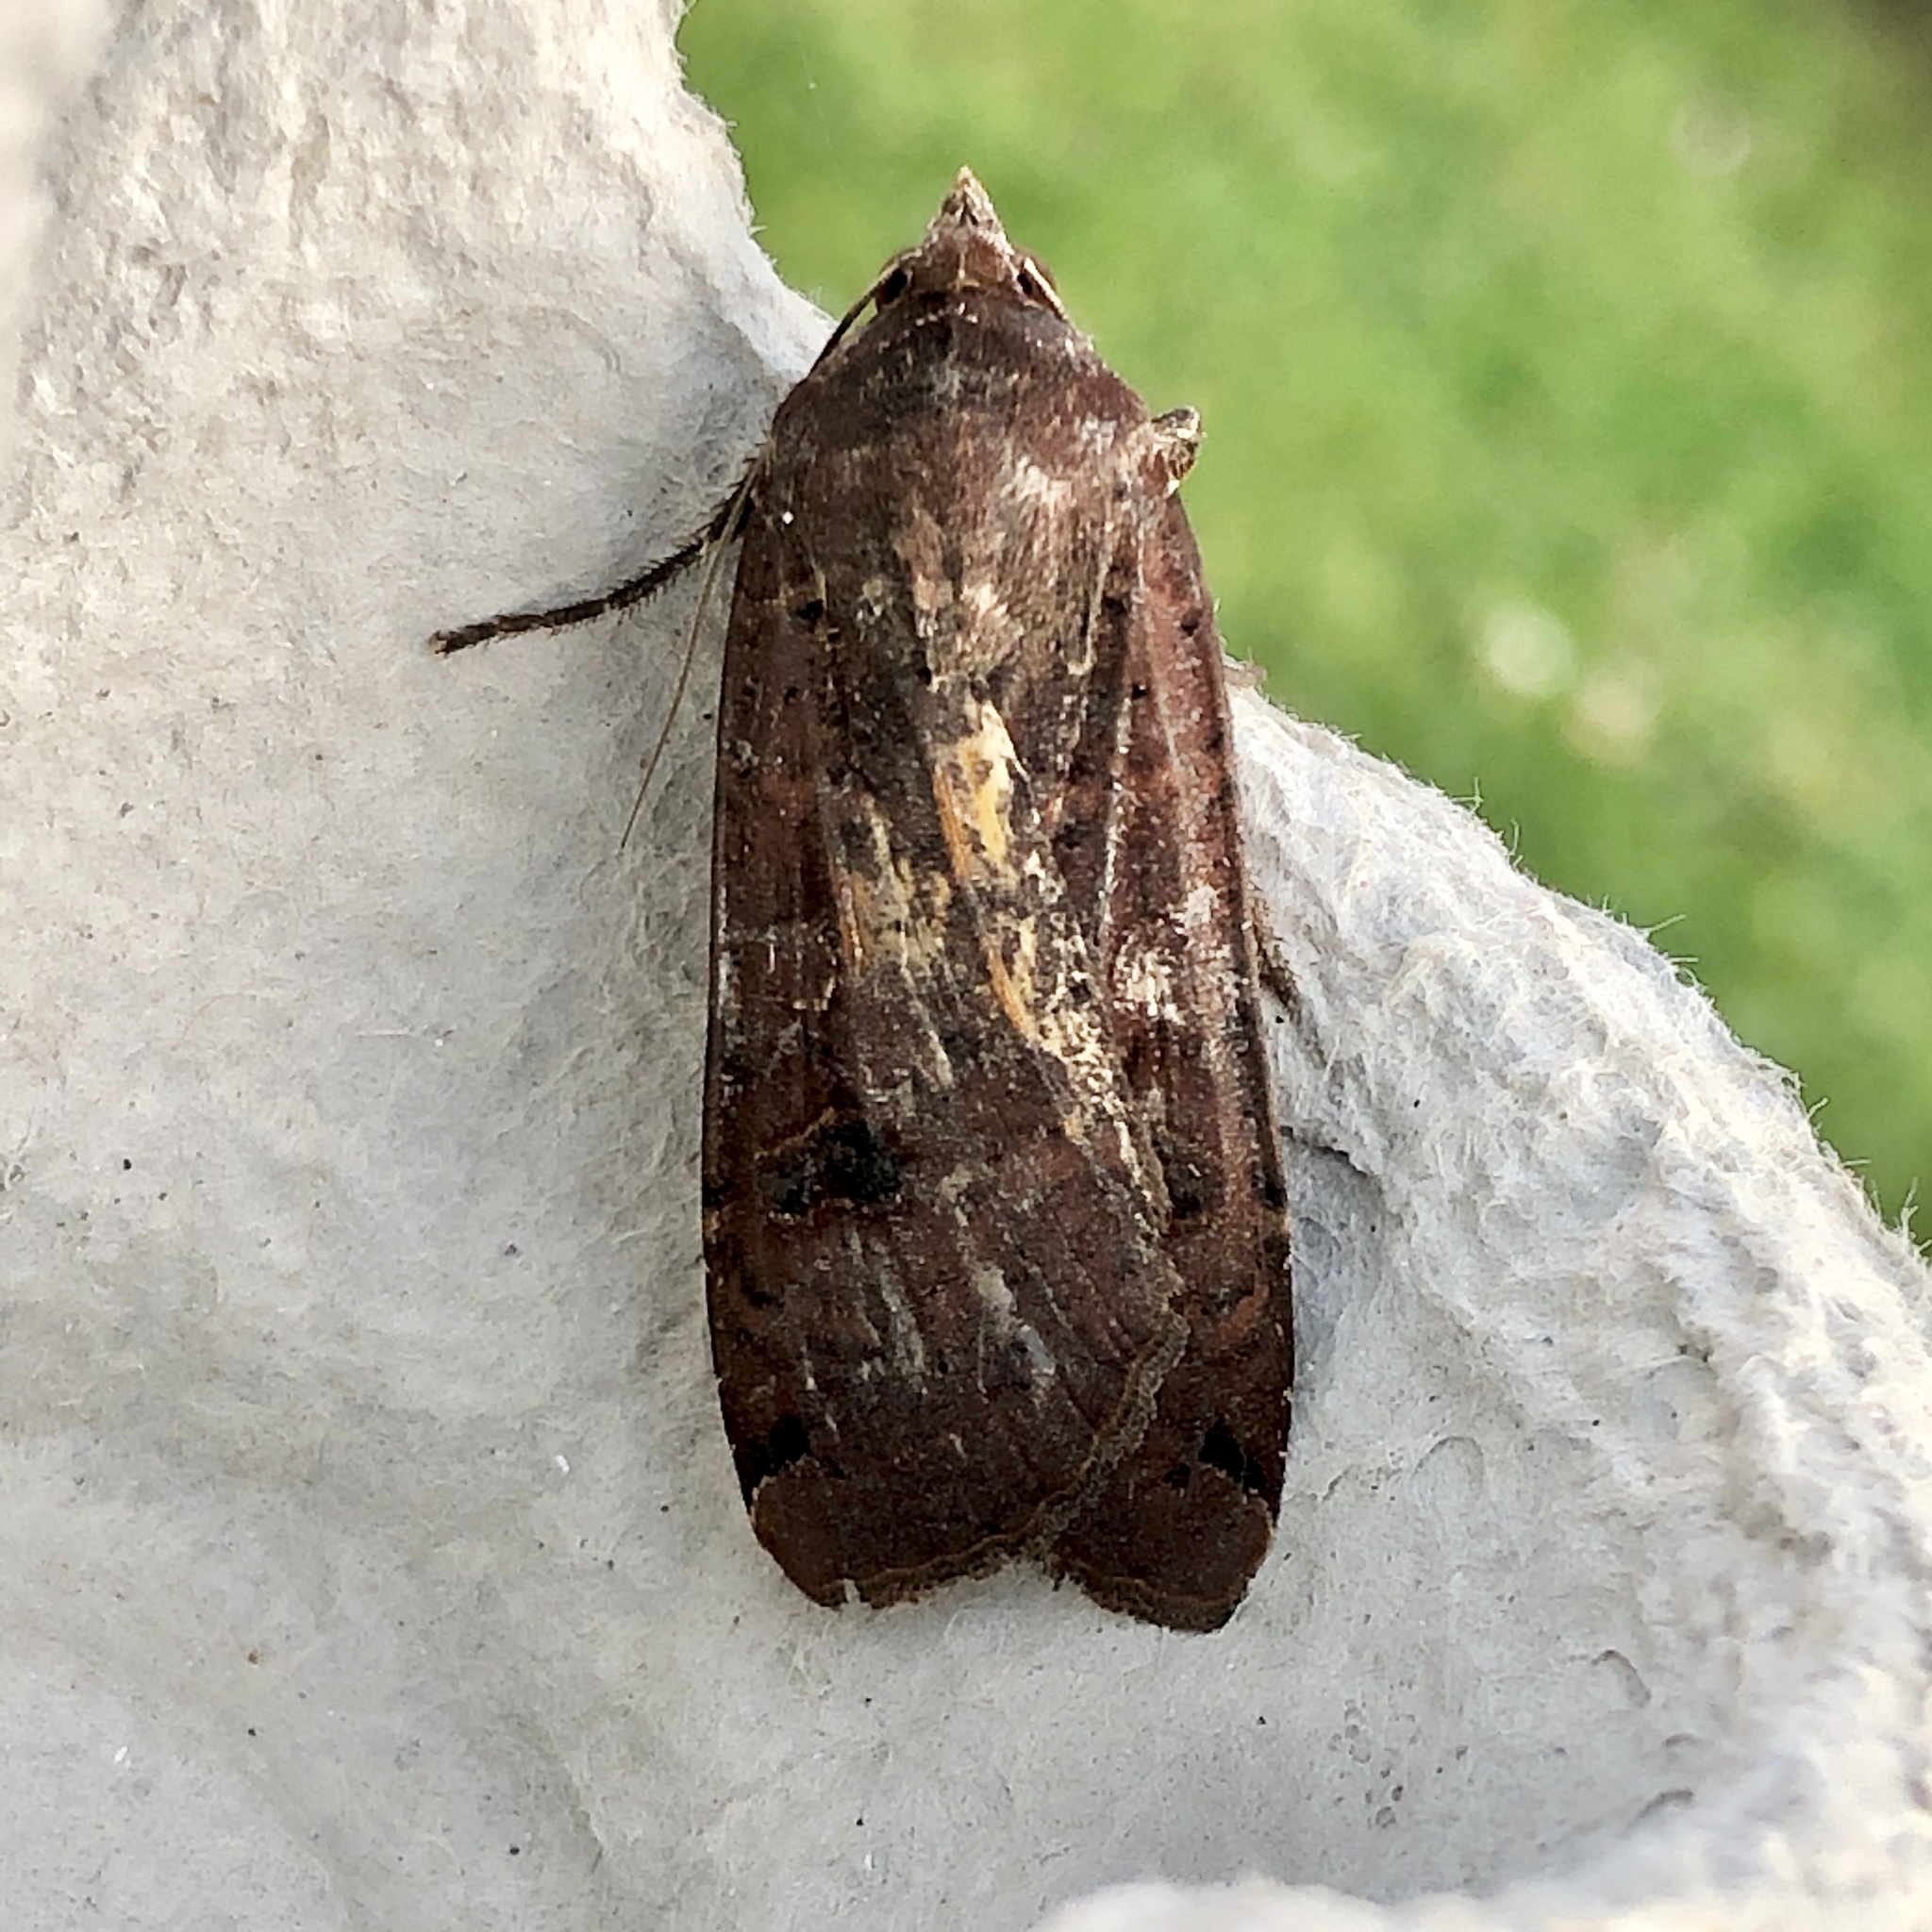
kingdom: Animalia
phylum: Arthropoda
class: Insecta
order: Lepidoptera
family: Noctuidae
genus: Noctua
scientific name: Noctua pronuba
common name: Large yellow underwing
